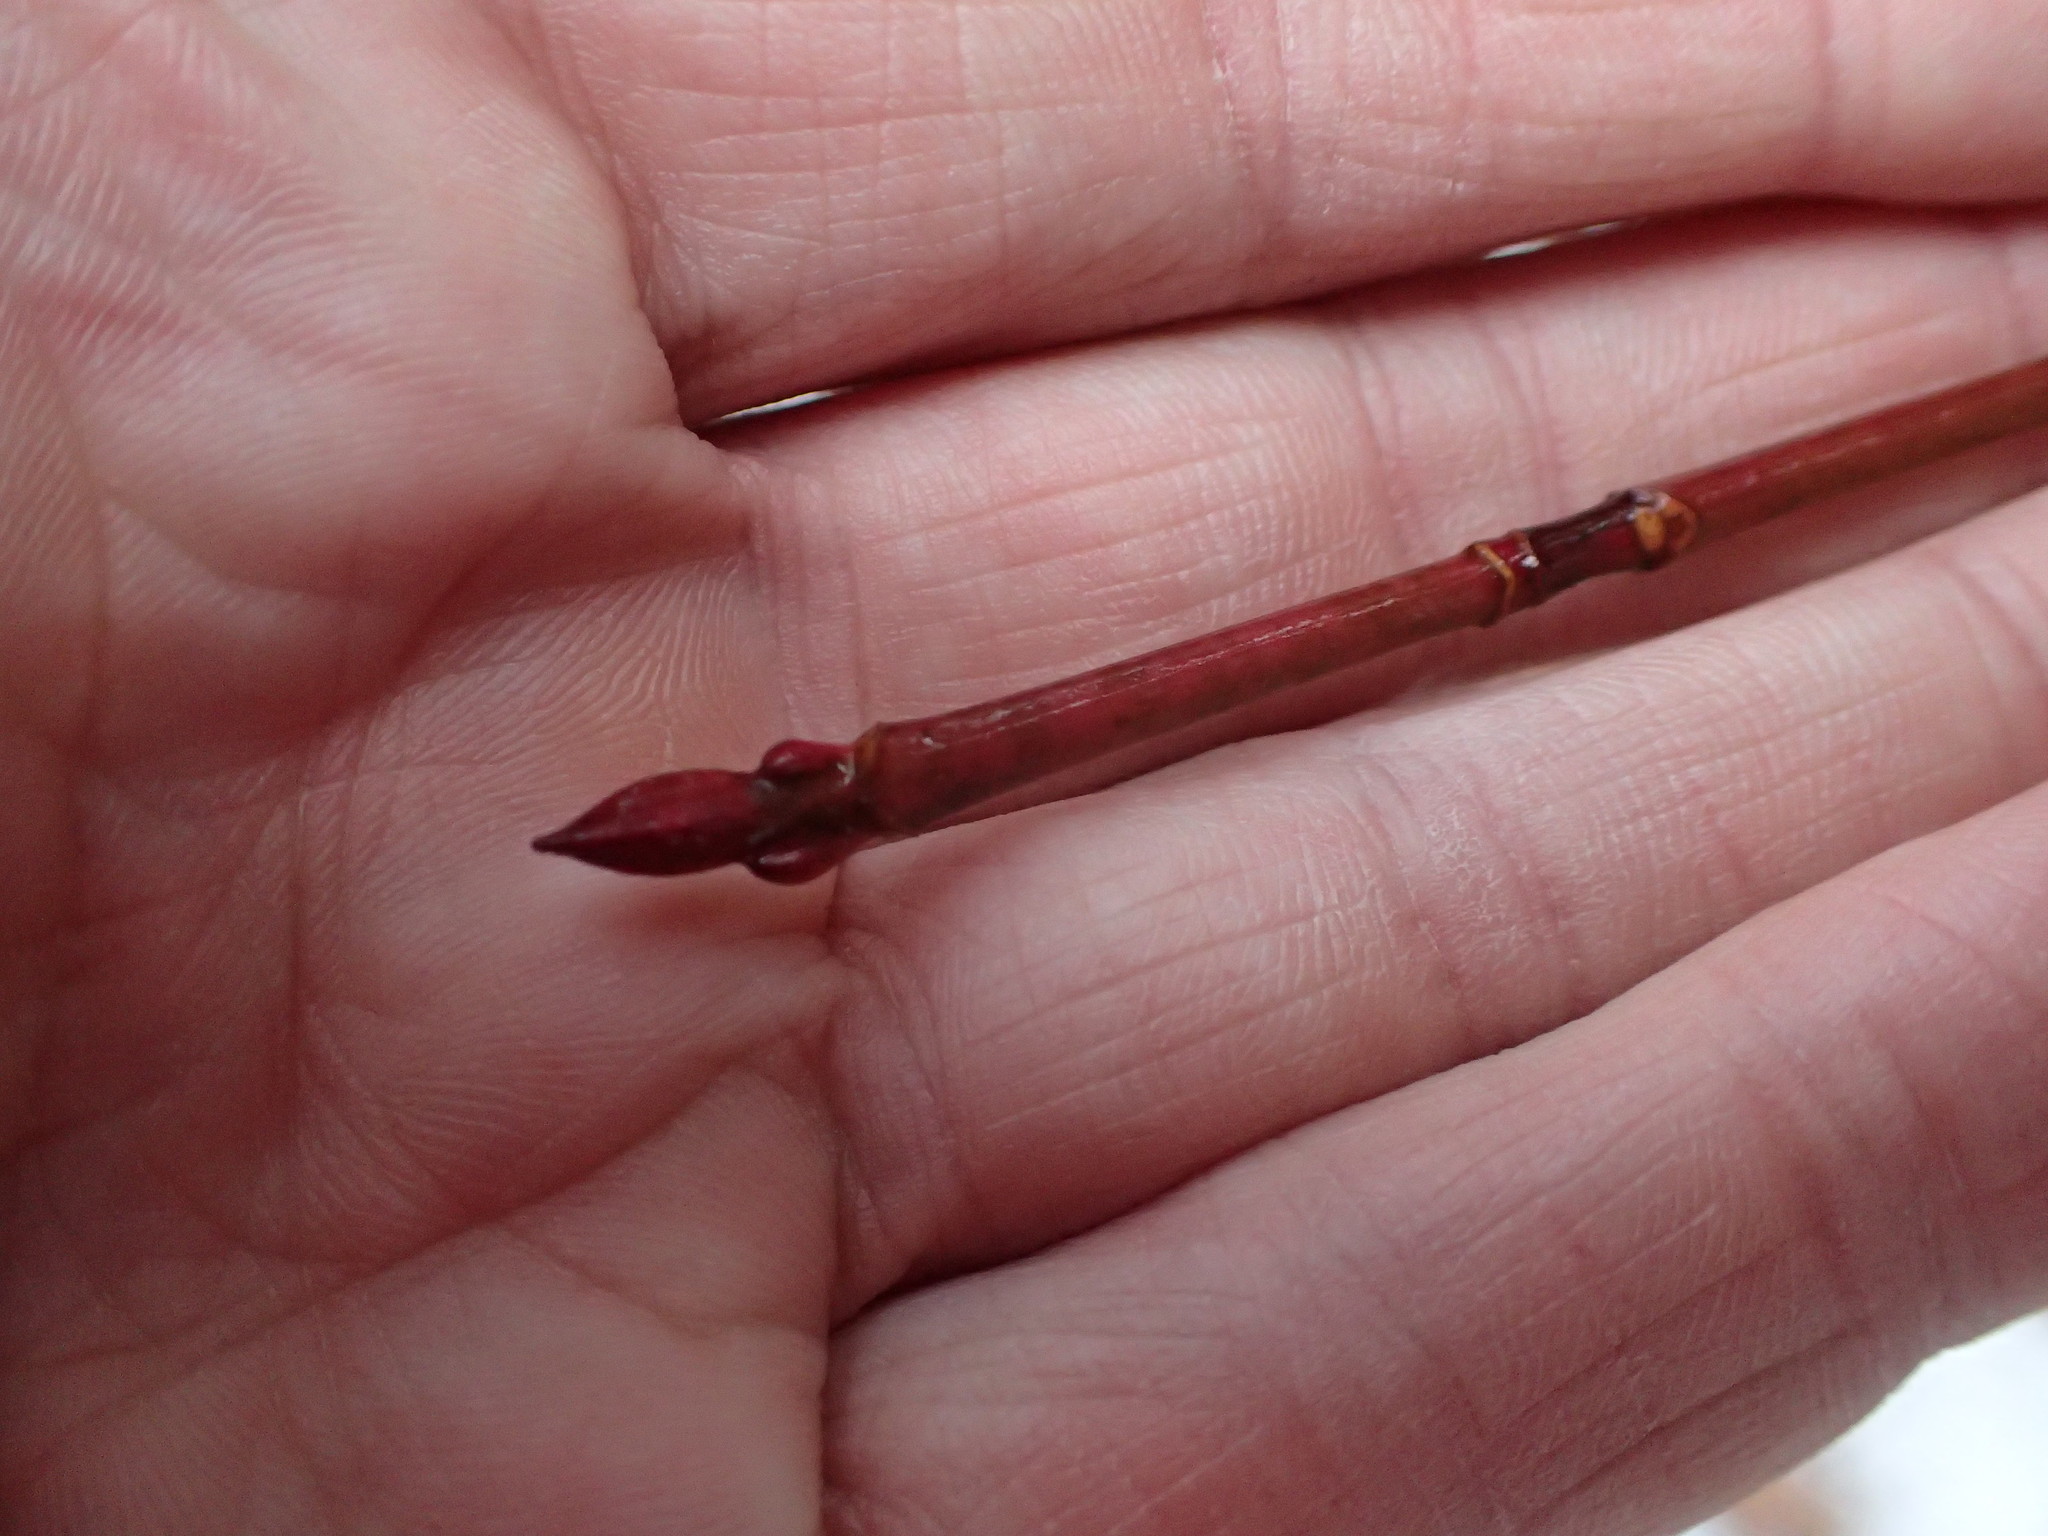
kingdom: Plantae
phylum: Tracheophyta
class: Magnoliopsida
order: Sapindales
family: Sapindaceae
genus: Acer
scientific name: Acer pensylvanicum
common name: Moosewood
